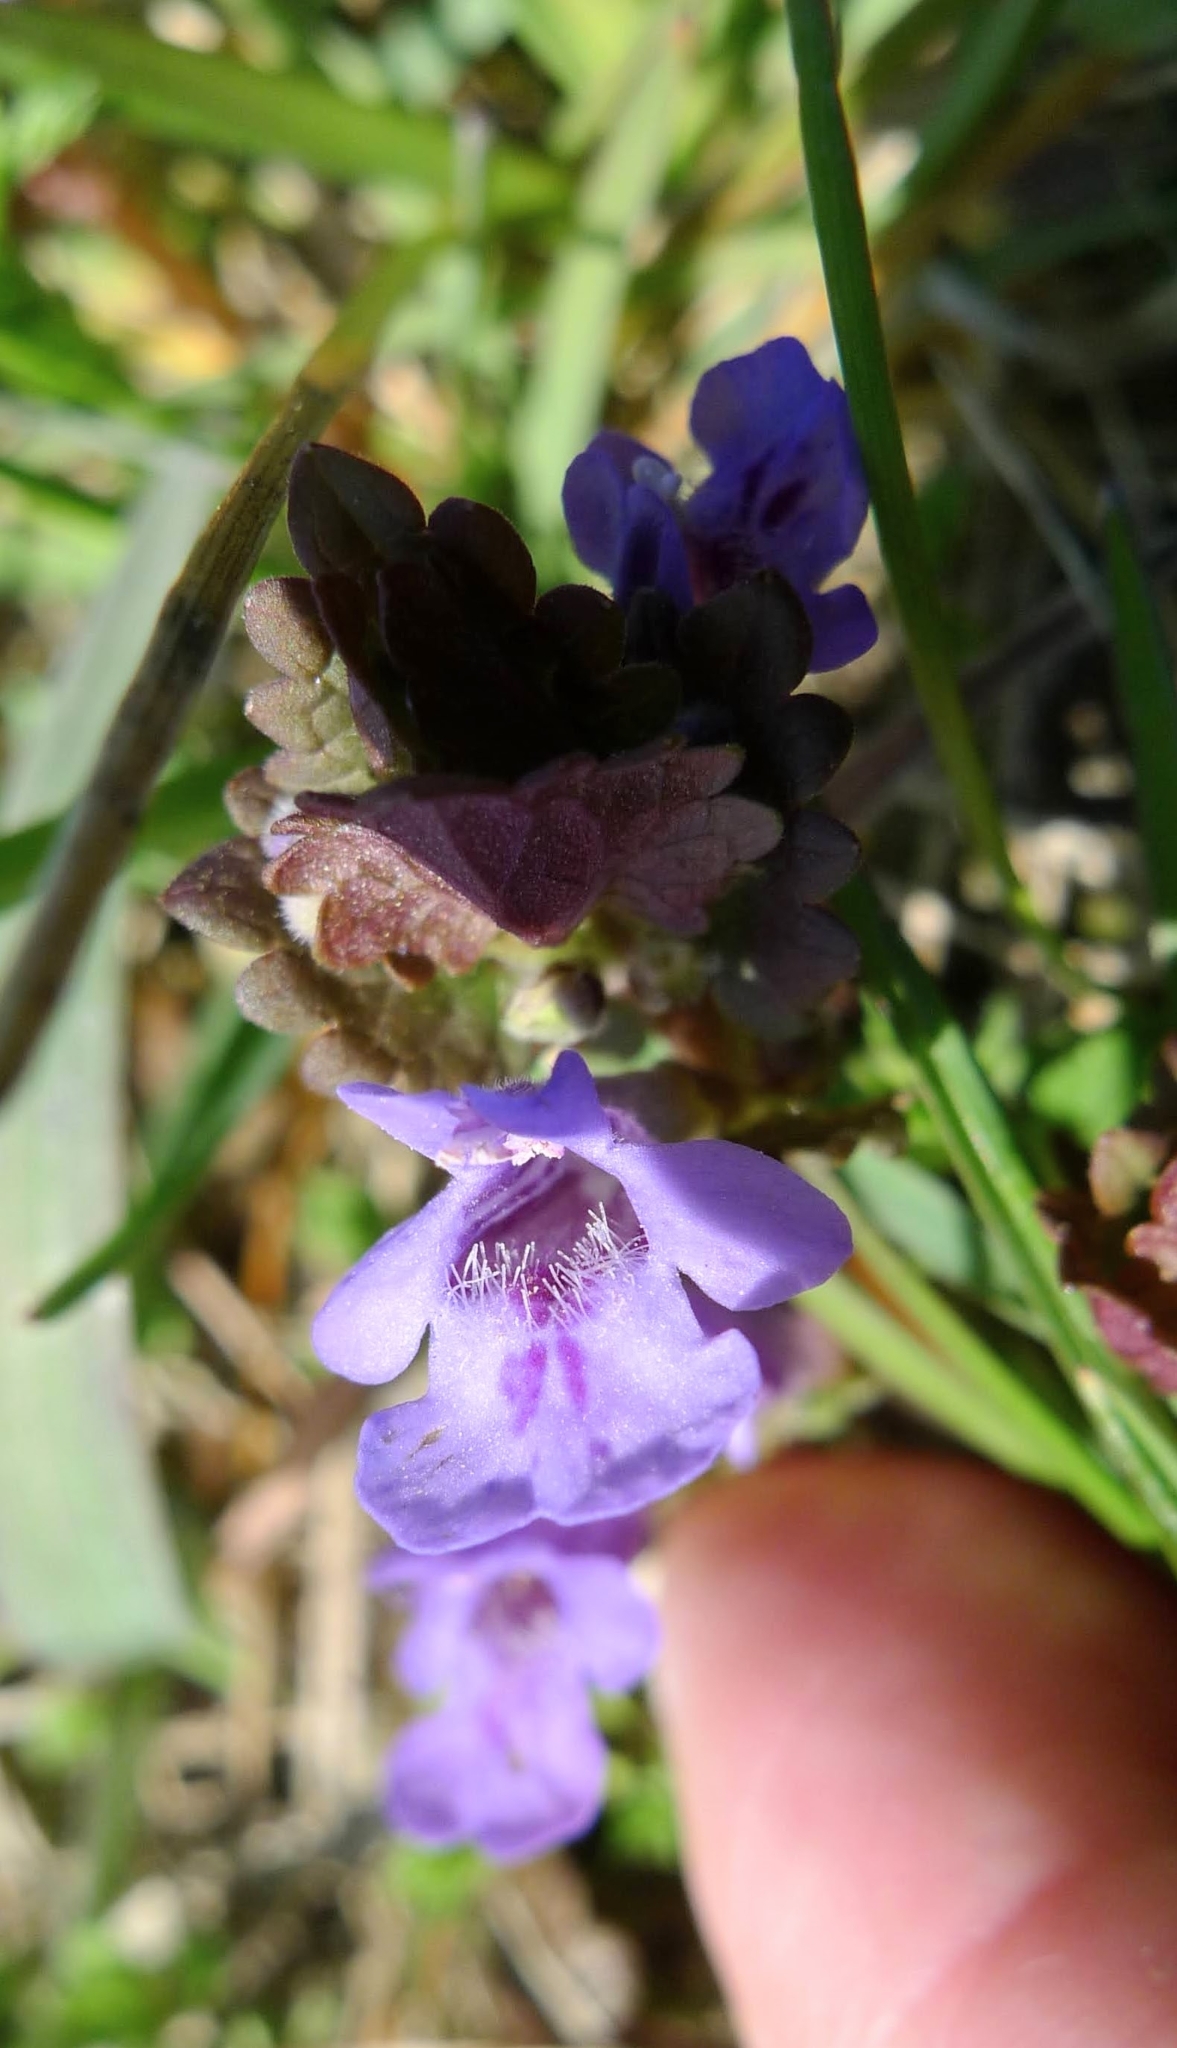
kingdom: Plantae
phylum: Tracheophyta
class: Magnoliopsida
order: Lamiales
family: Lamiaceae
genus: Glechoma
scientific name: Glechoma hederacea
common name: Ground ivy
